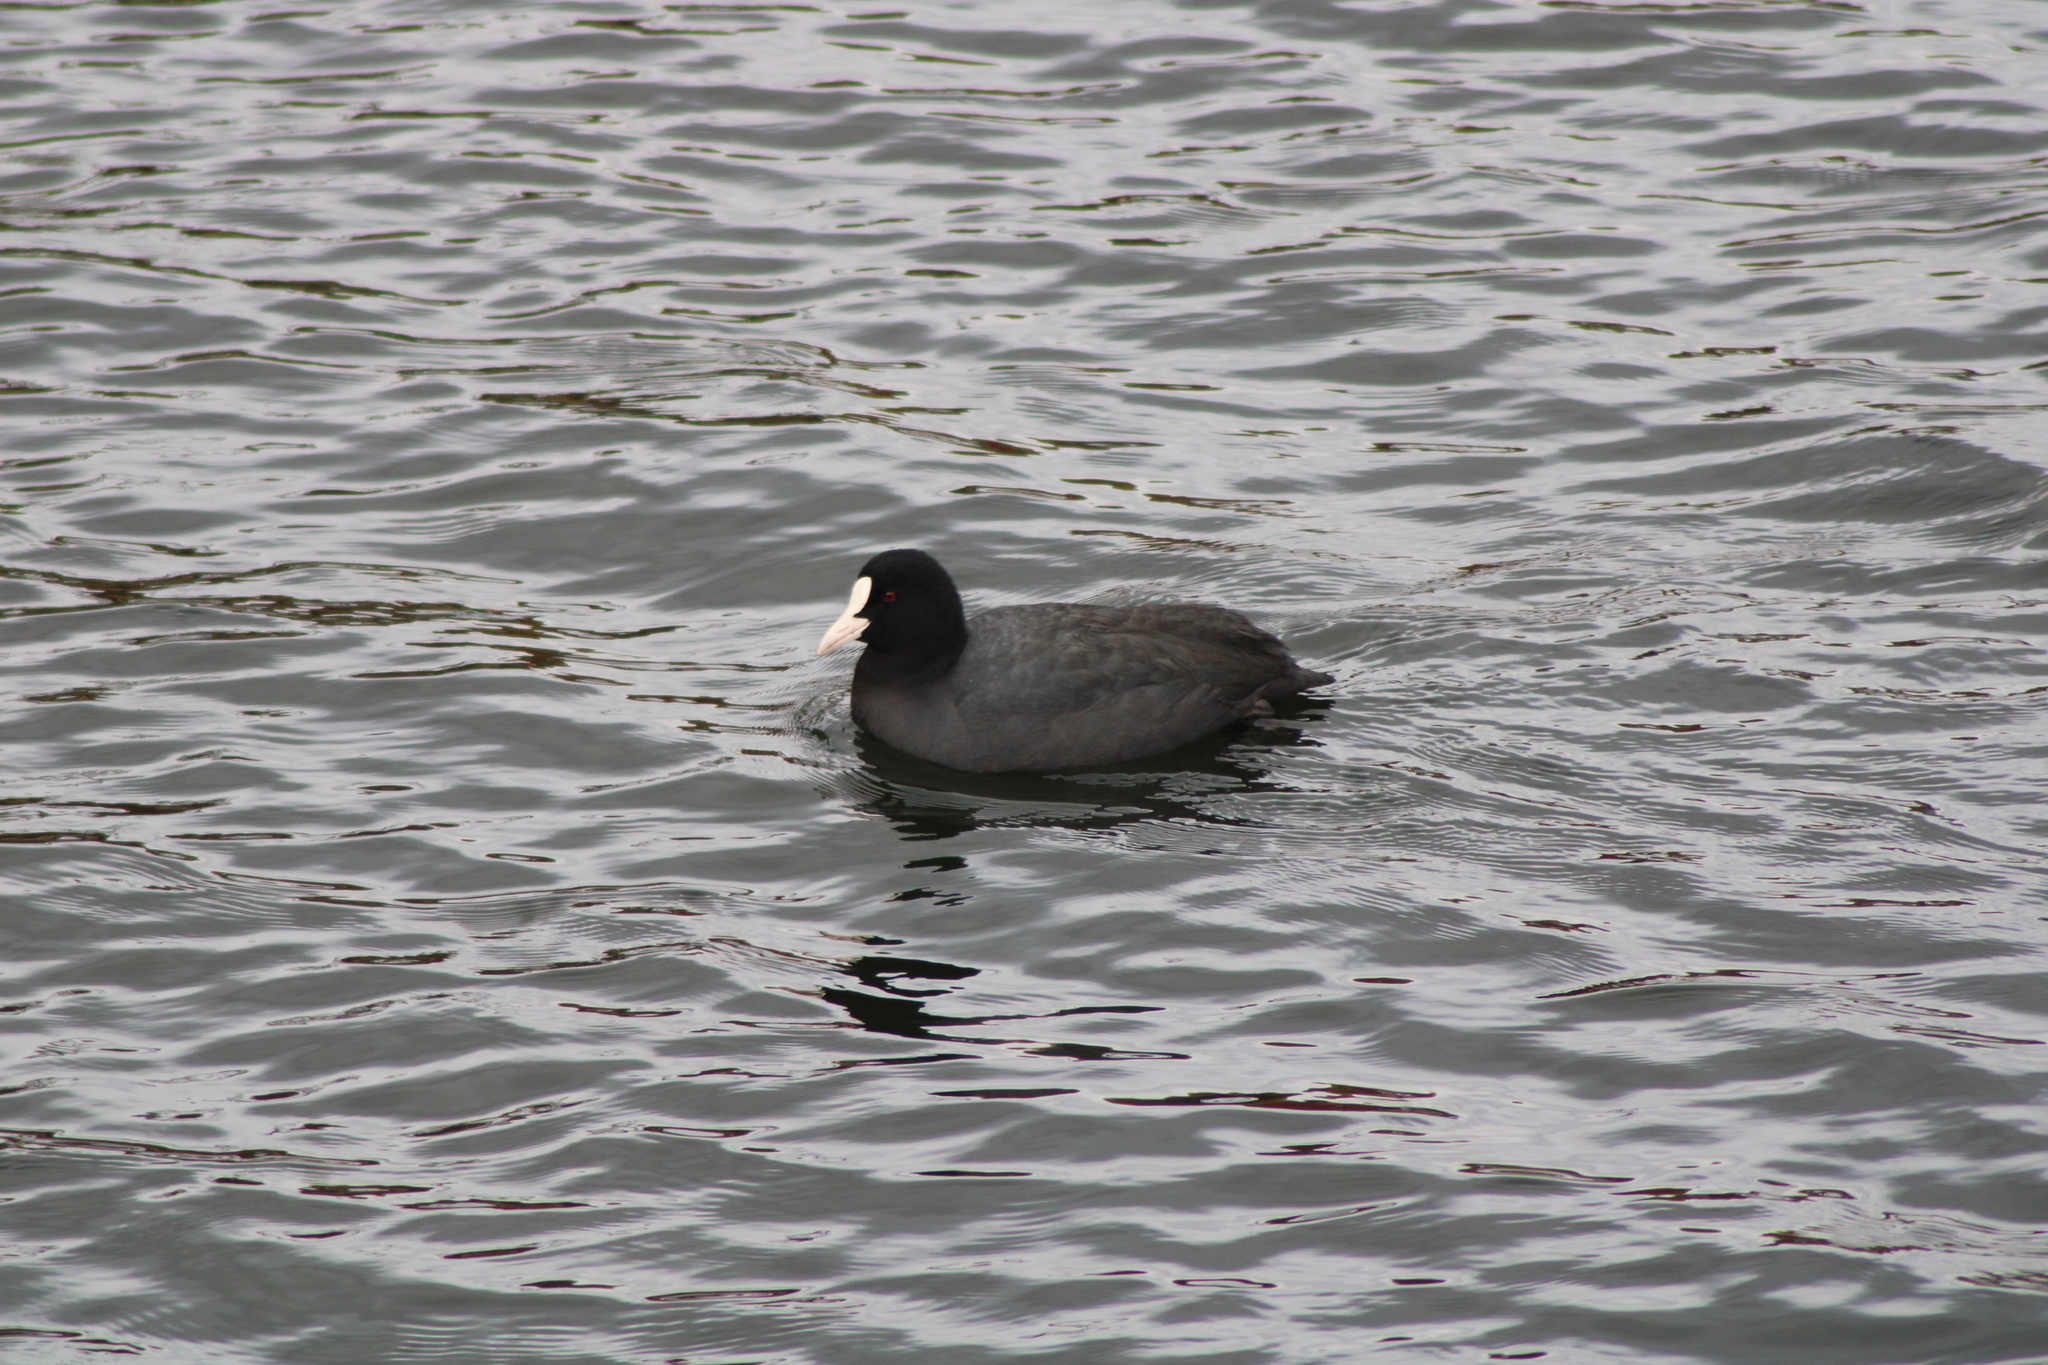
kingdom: Animalia
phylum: Chordata
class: Aves
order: Gruiformes
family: Rallidae
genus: Fulica
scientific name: Fulica atra
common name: Eurasian coot
